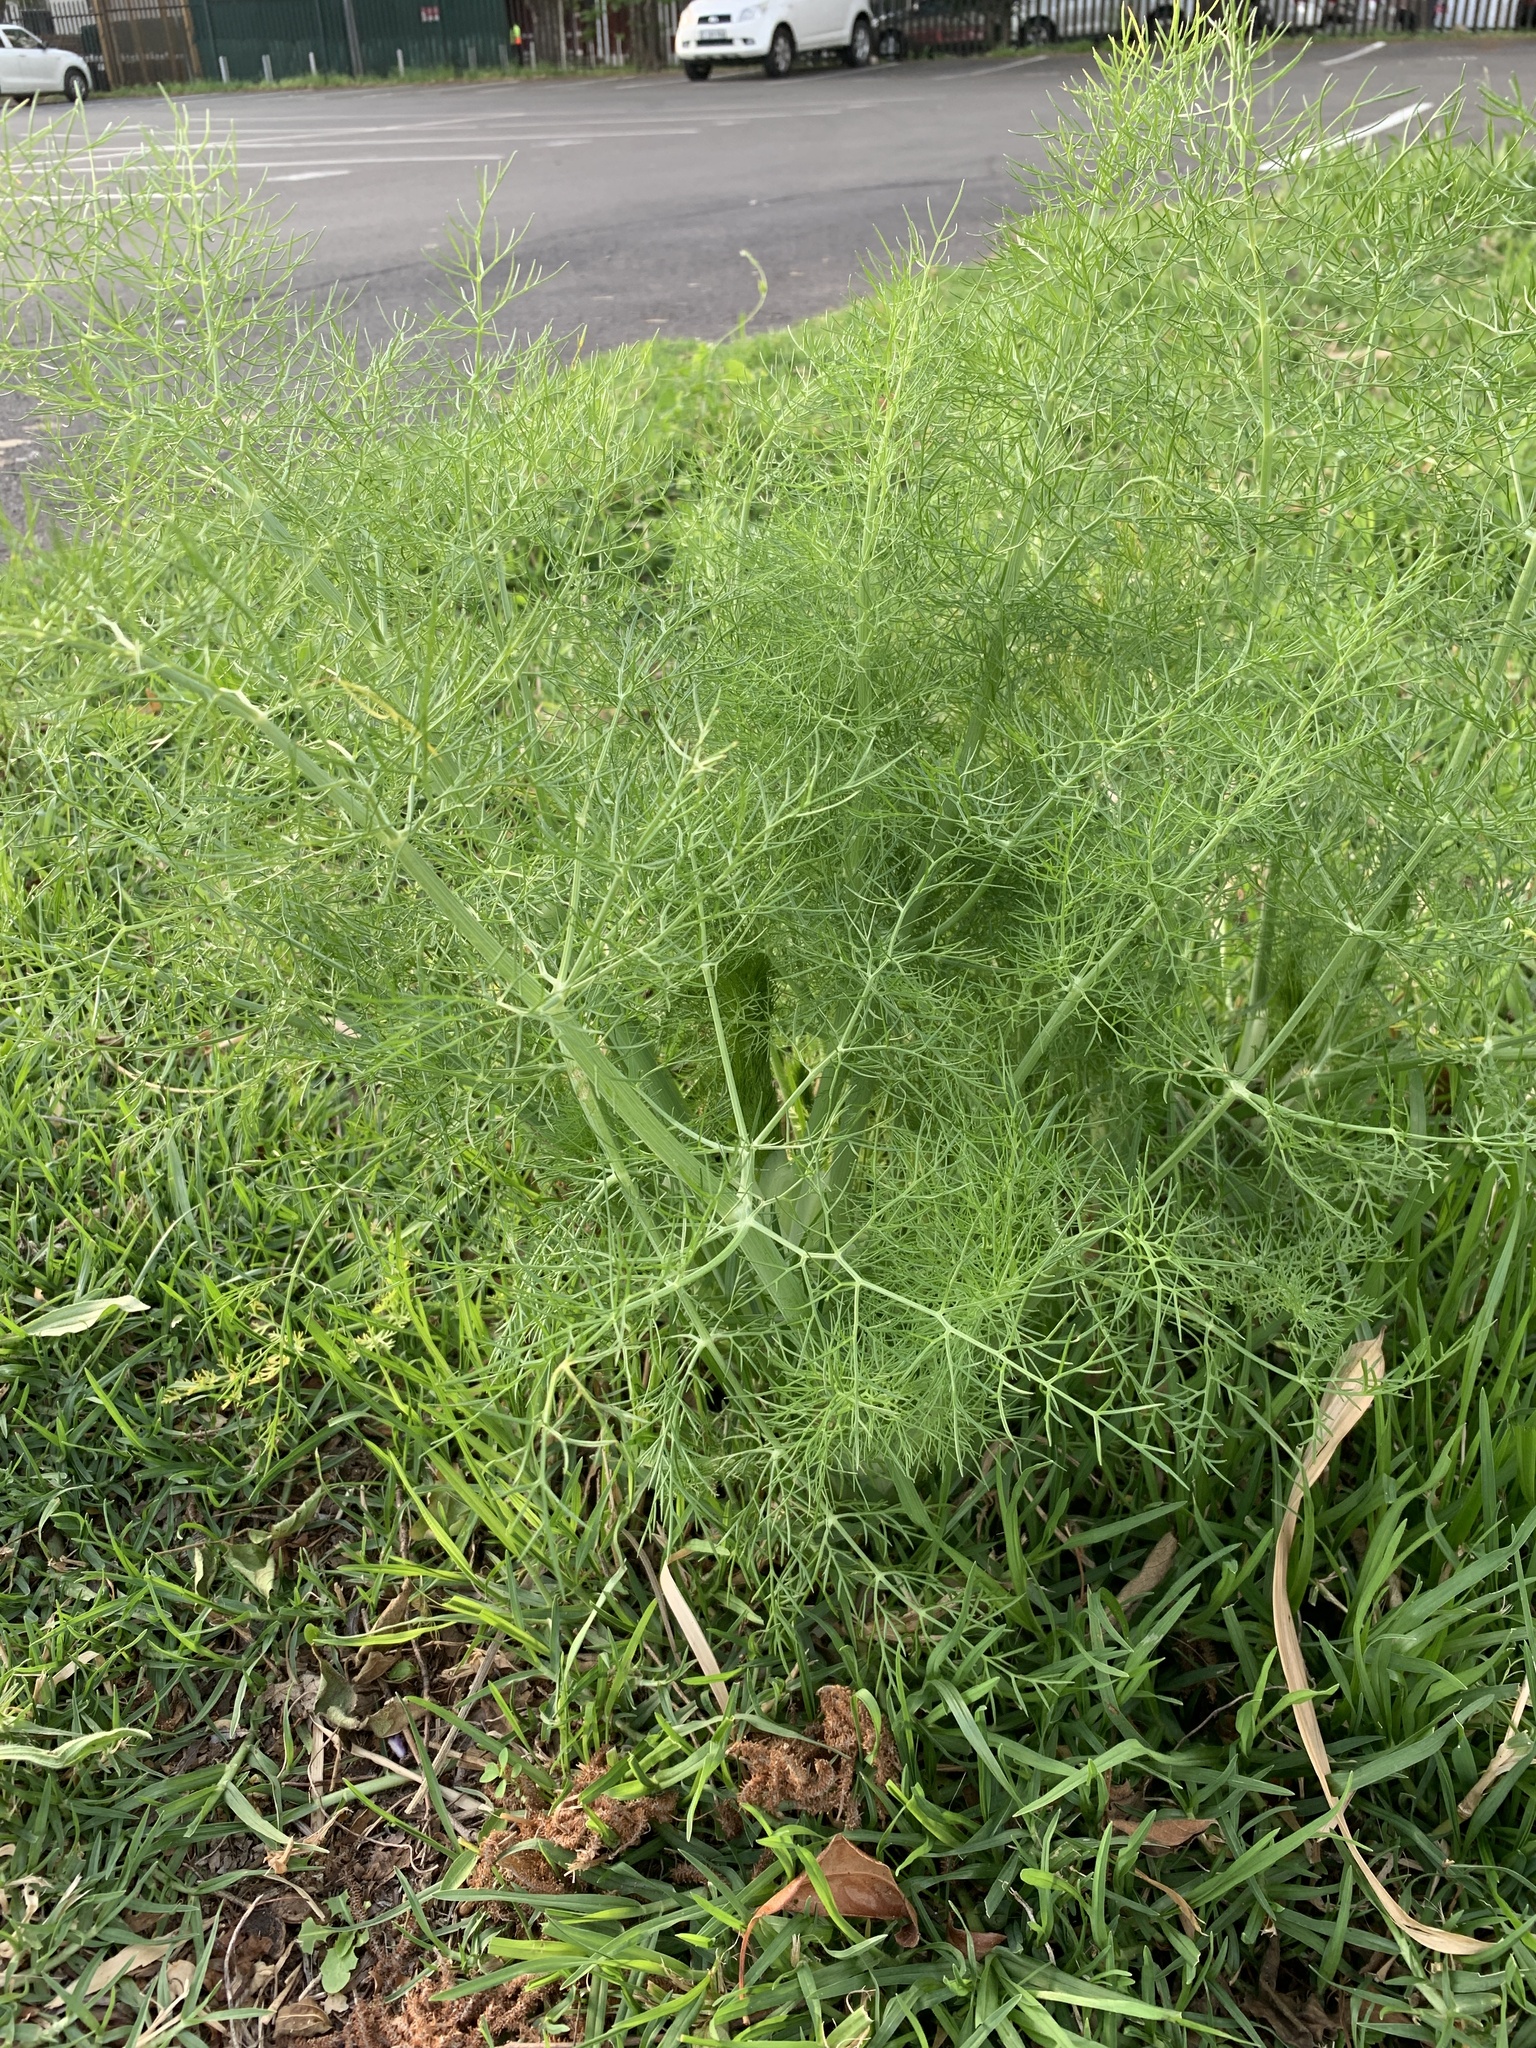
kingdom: Plantae
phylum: Tracheophyta
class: Magnoliopsida
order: Apiales
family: Apiaceae
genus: Foeniculum
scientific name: Foeniculum vulgare
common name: Fennel
